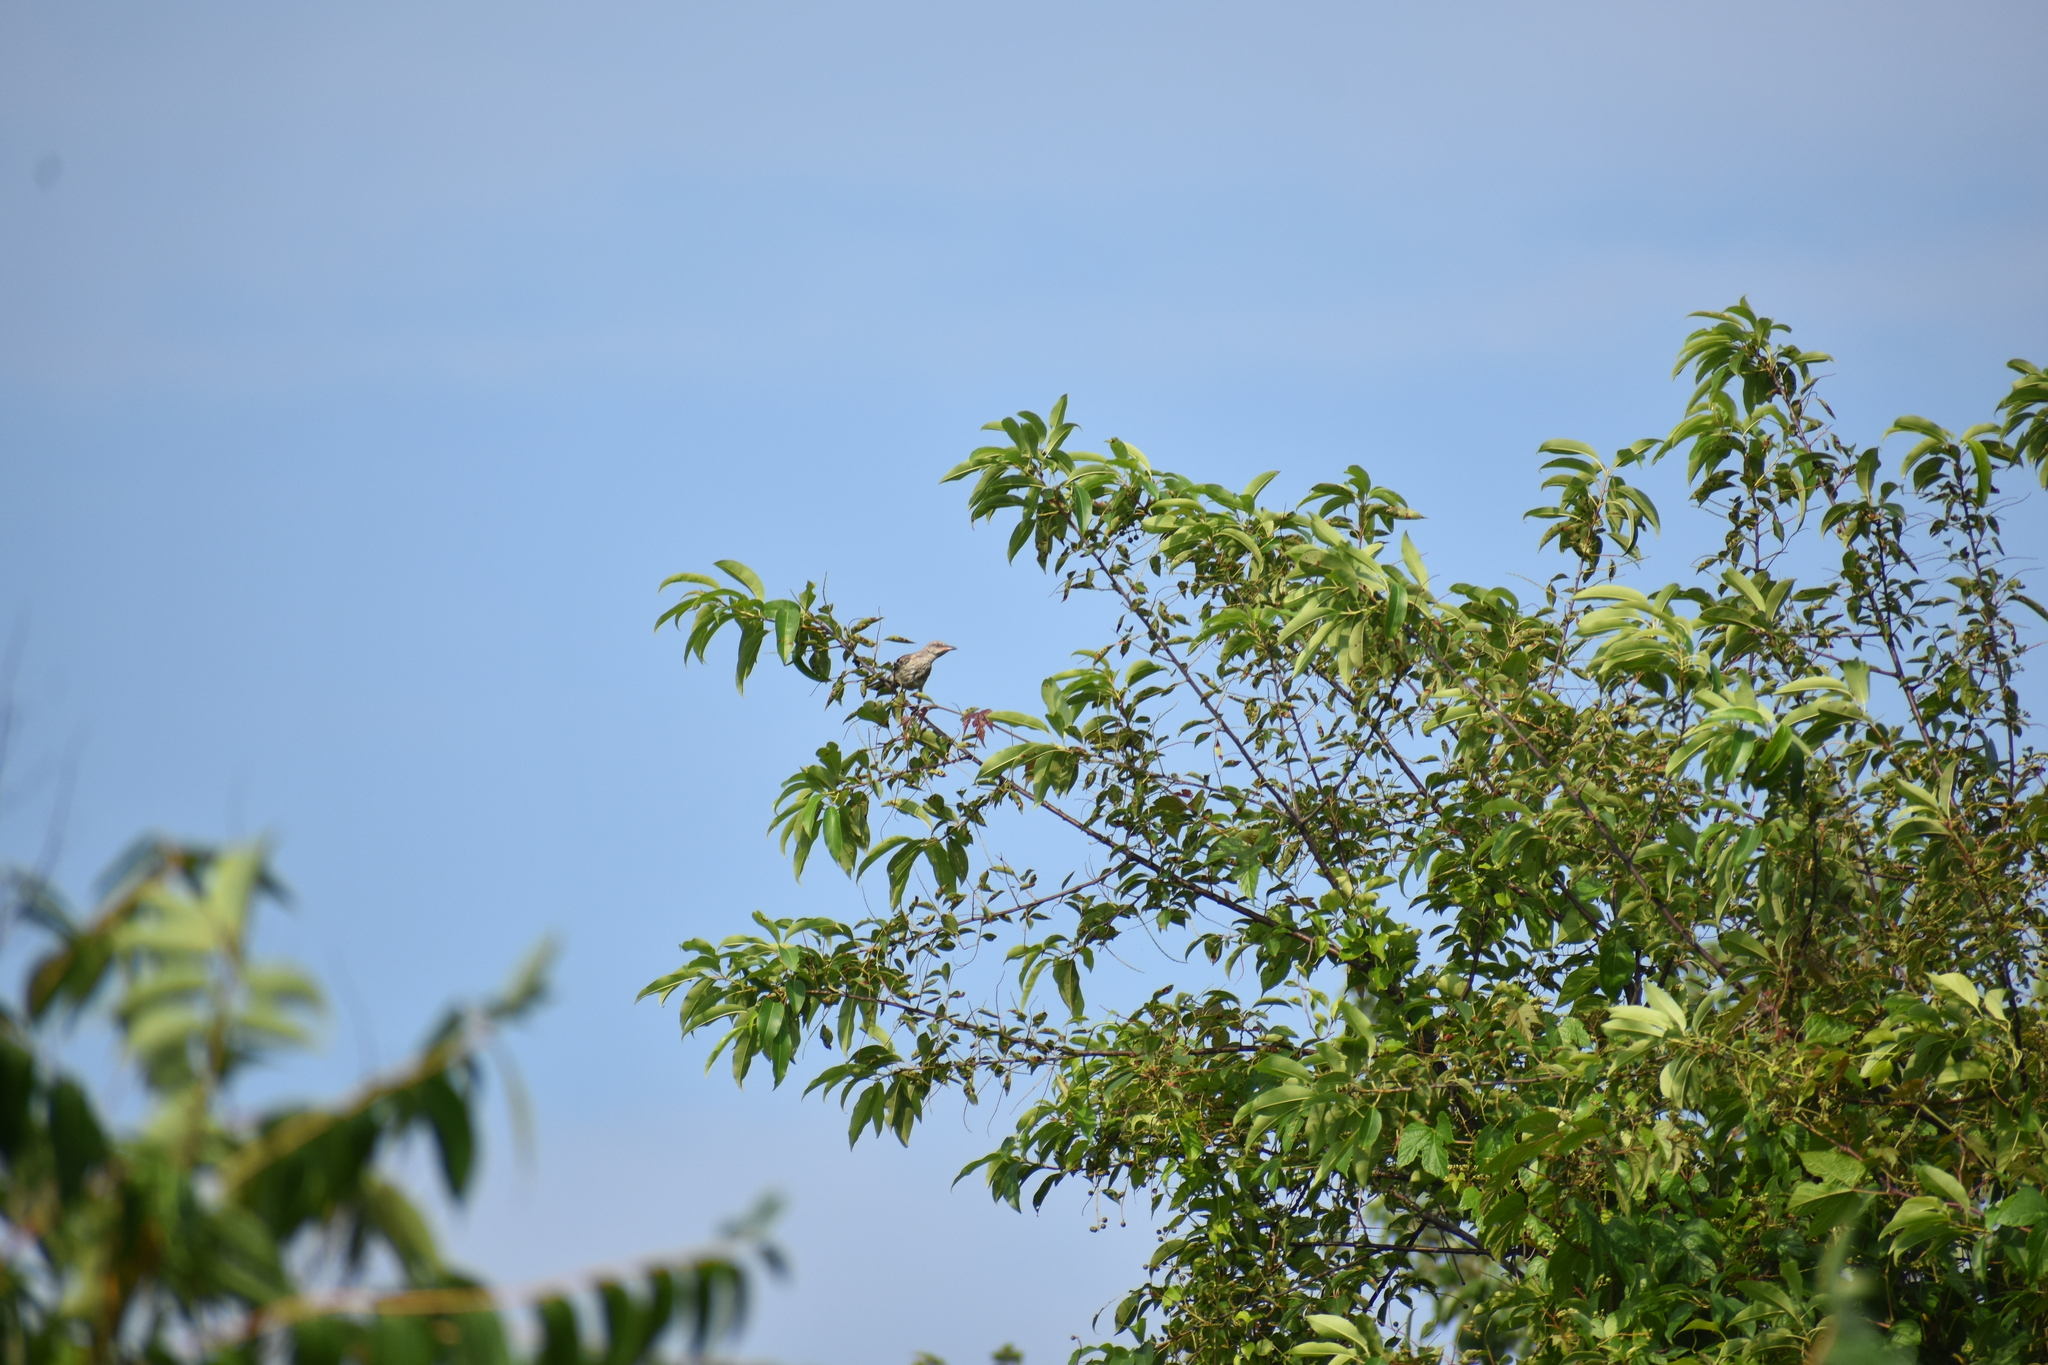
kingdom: Animalia
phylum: Chordata
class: Aves
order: Passeriformes
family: Mimidae
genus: Mimus
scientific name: Mimus polyglottos
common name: Northern mockingbird
